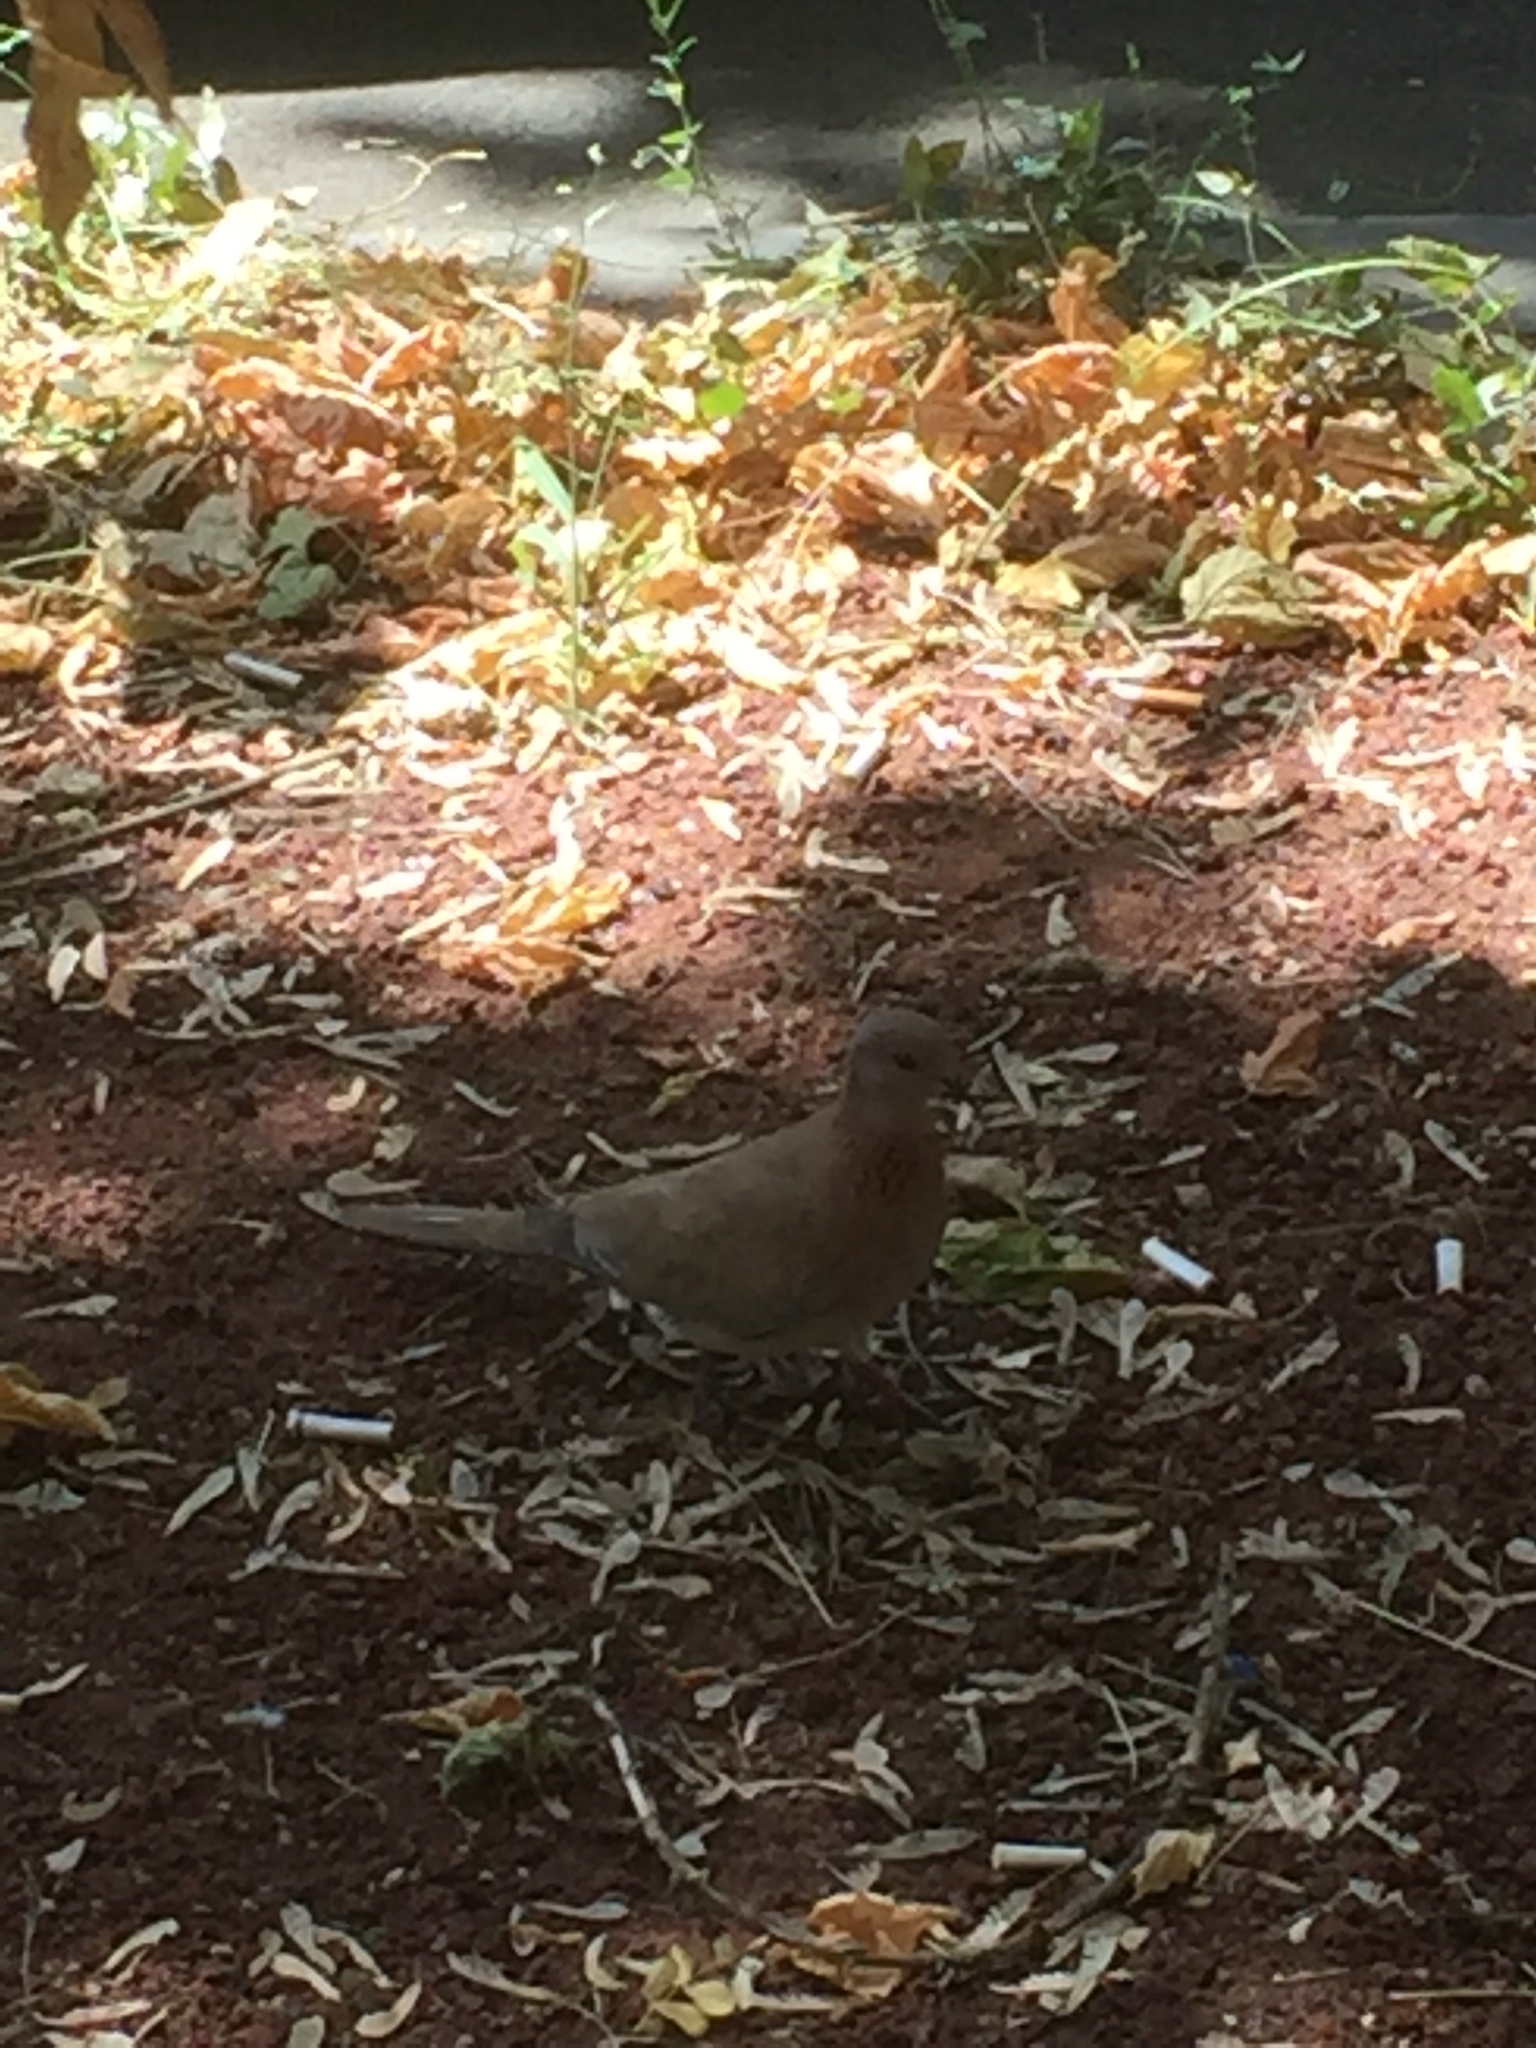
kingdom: Animalia
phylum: Chordata
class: Aves
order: Columbiformes
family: Columbidae
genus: Spilopelia
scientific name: Spilopelia senegalensis
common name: Laughing dove
